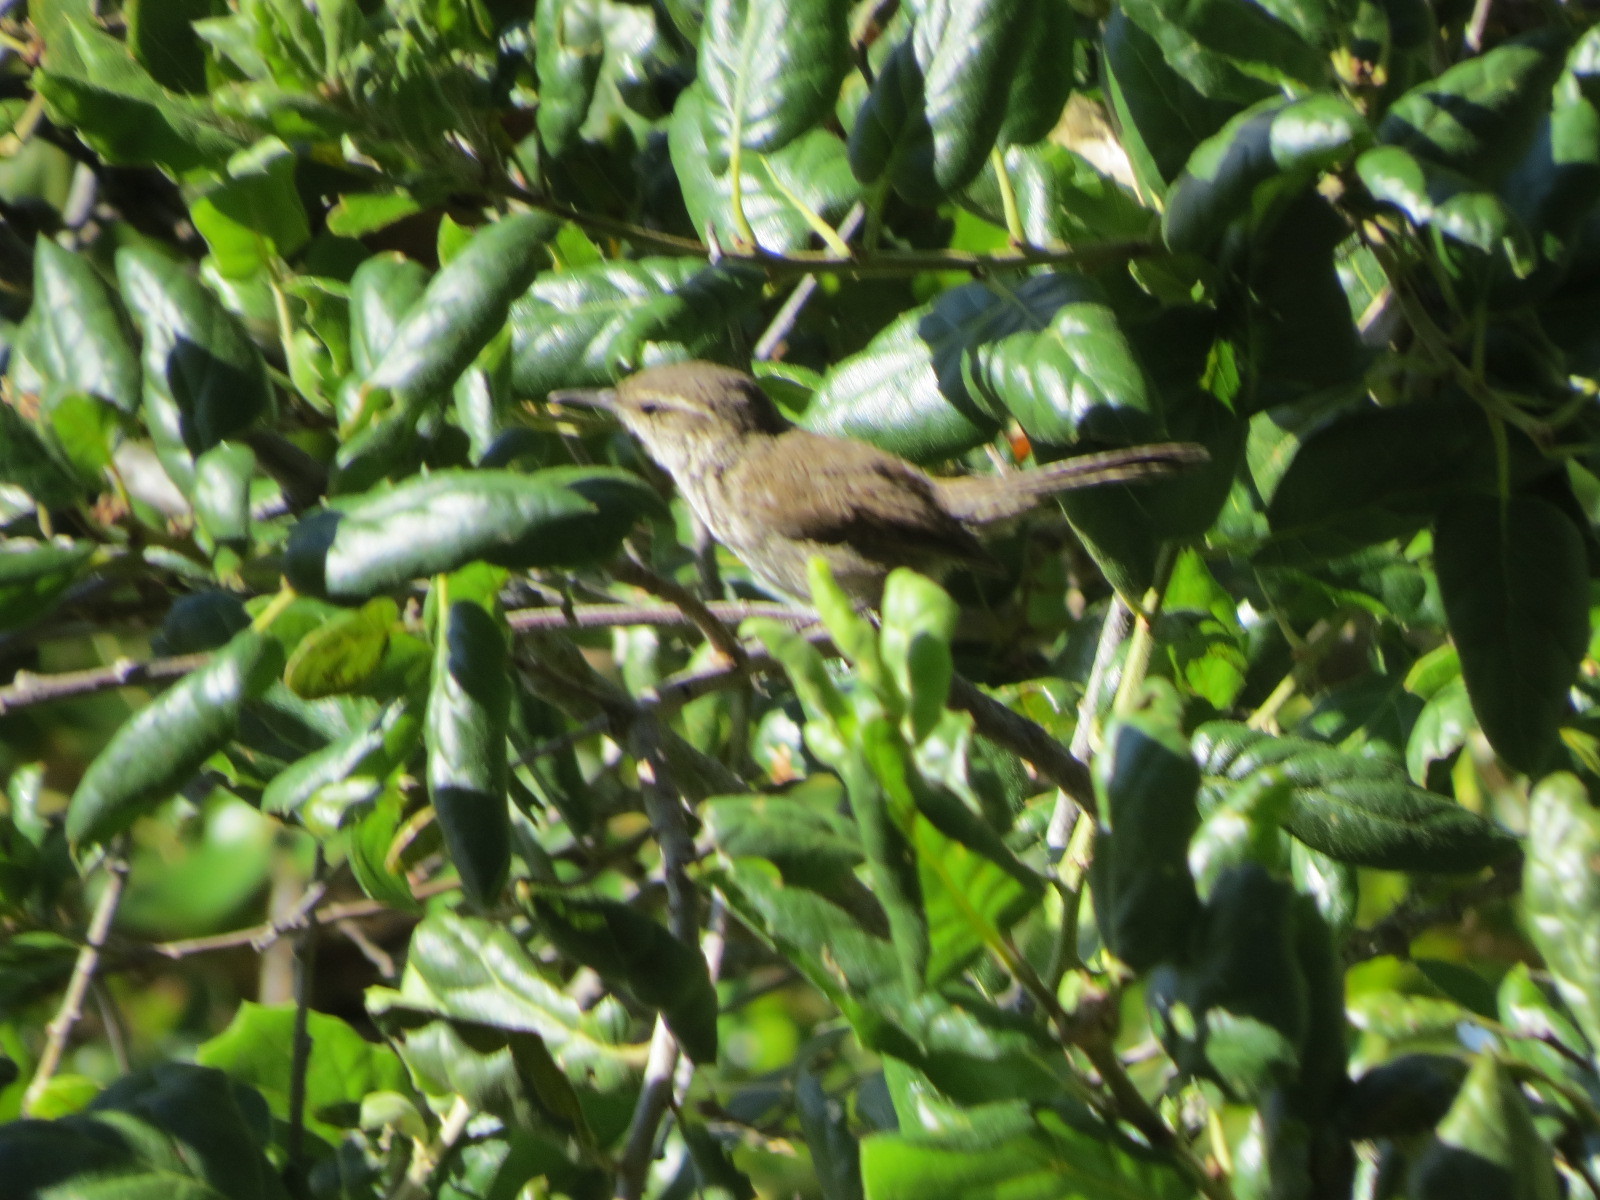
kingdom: Animalia
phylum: Chordata
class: Aves
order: Passeriformes
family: Troglodytidae
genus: Thryomanes
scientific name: Thryomanes bewickii
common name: Bewick's wren
